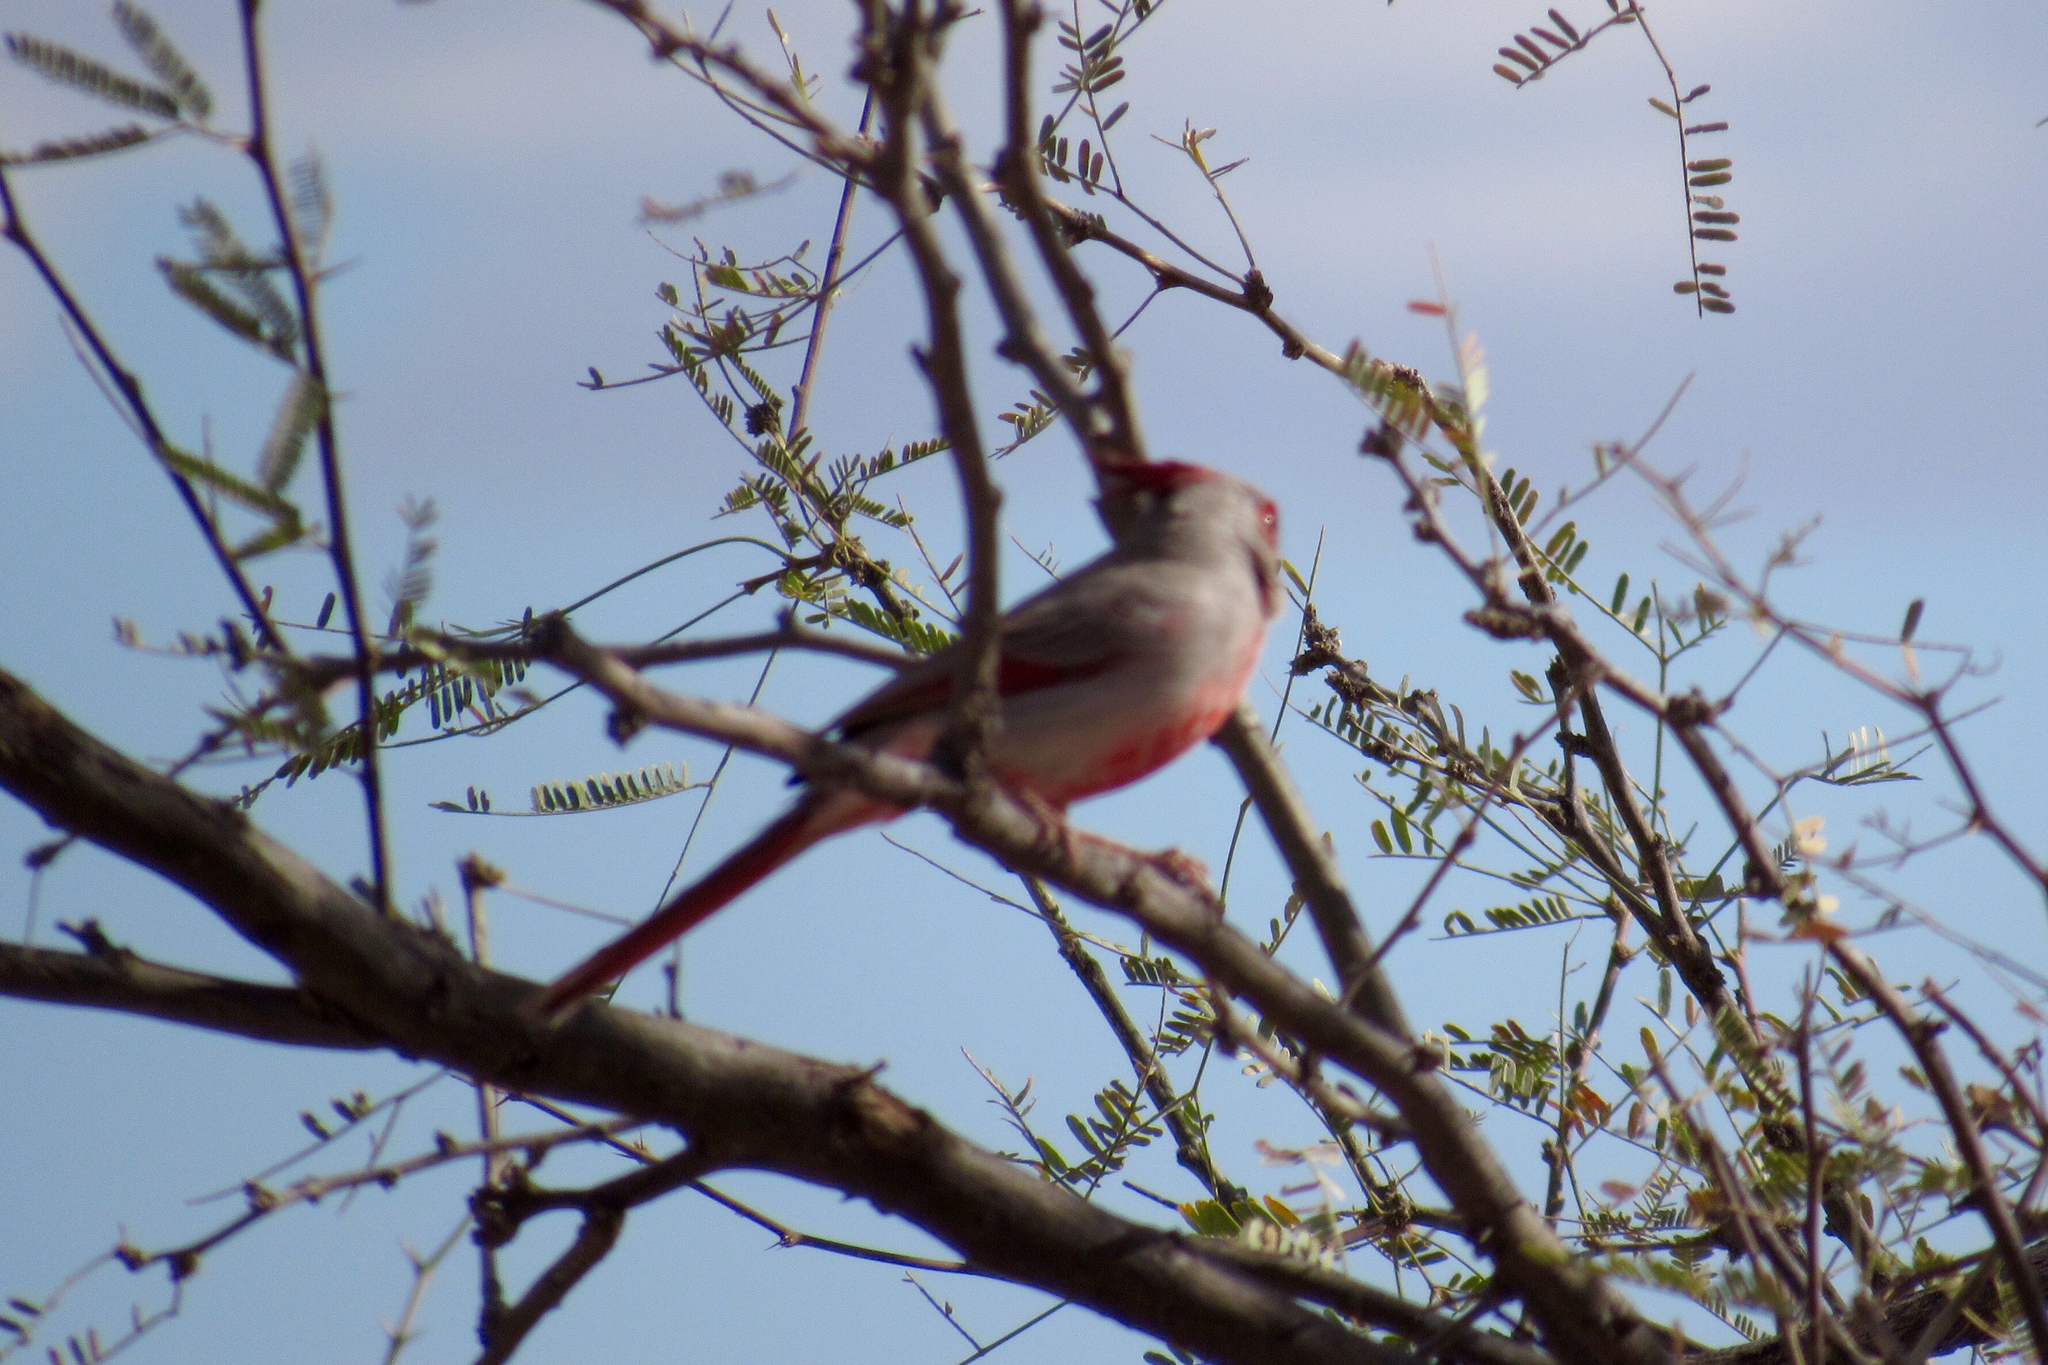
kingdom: Animalia
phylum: Chordata
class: Aves
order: Passeriformes
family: Cardinalidae
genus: Cardinalis
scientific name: Cardinalis sinuatus
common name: Pyrrhuloxia
